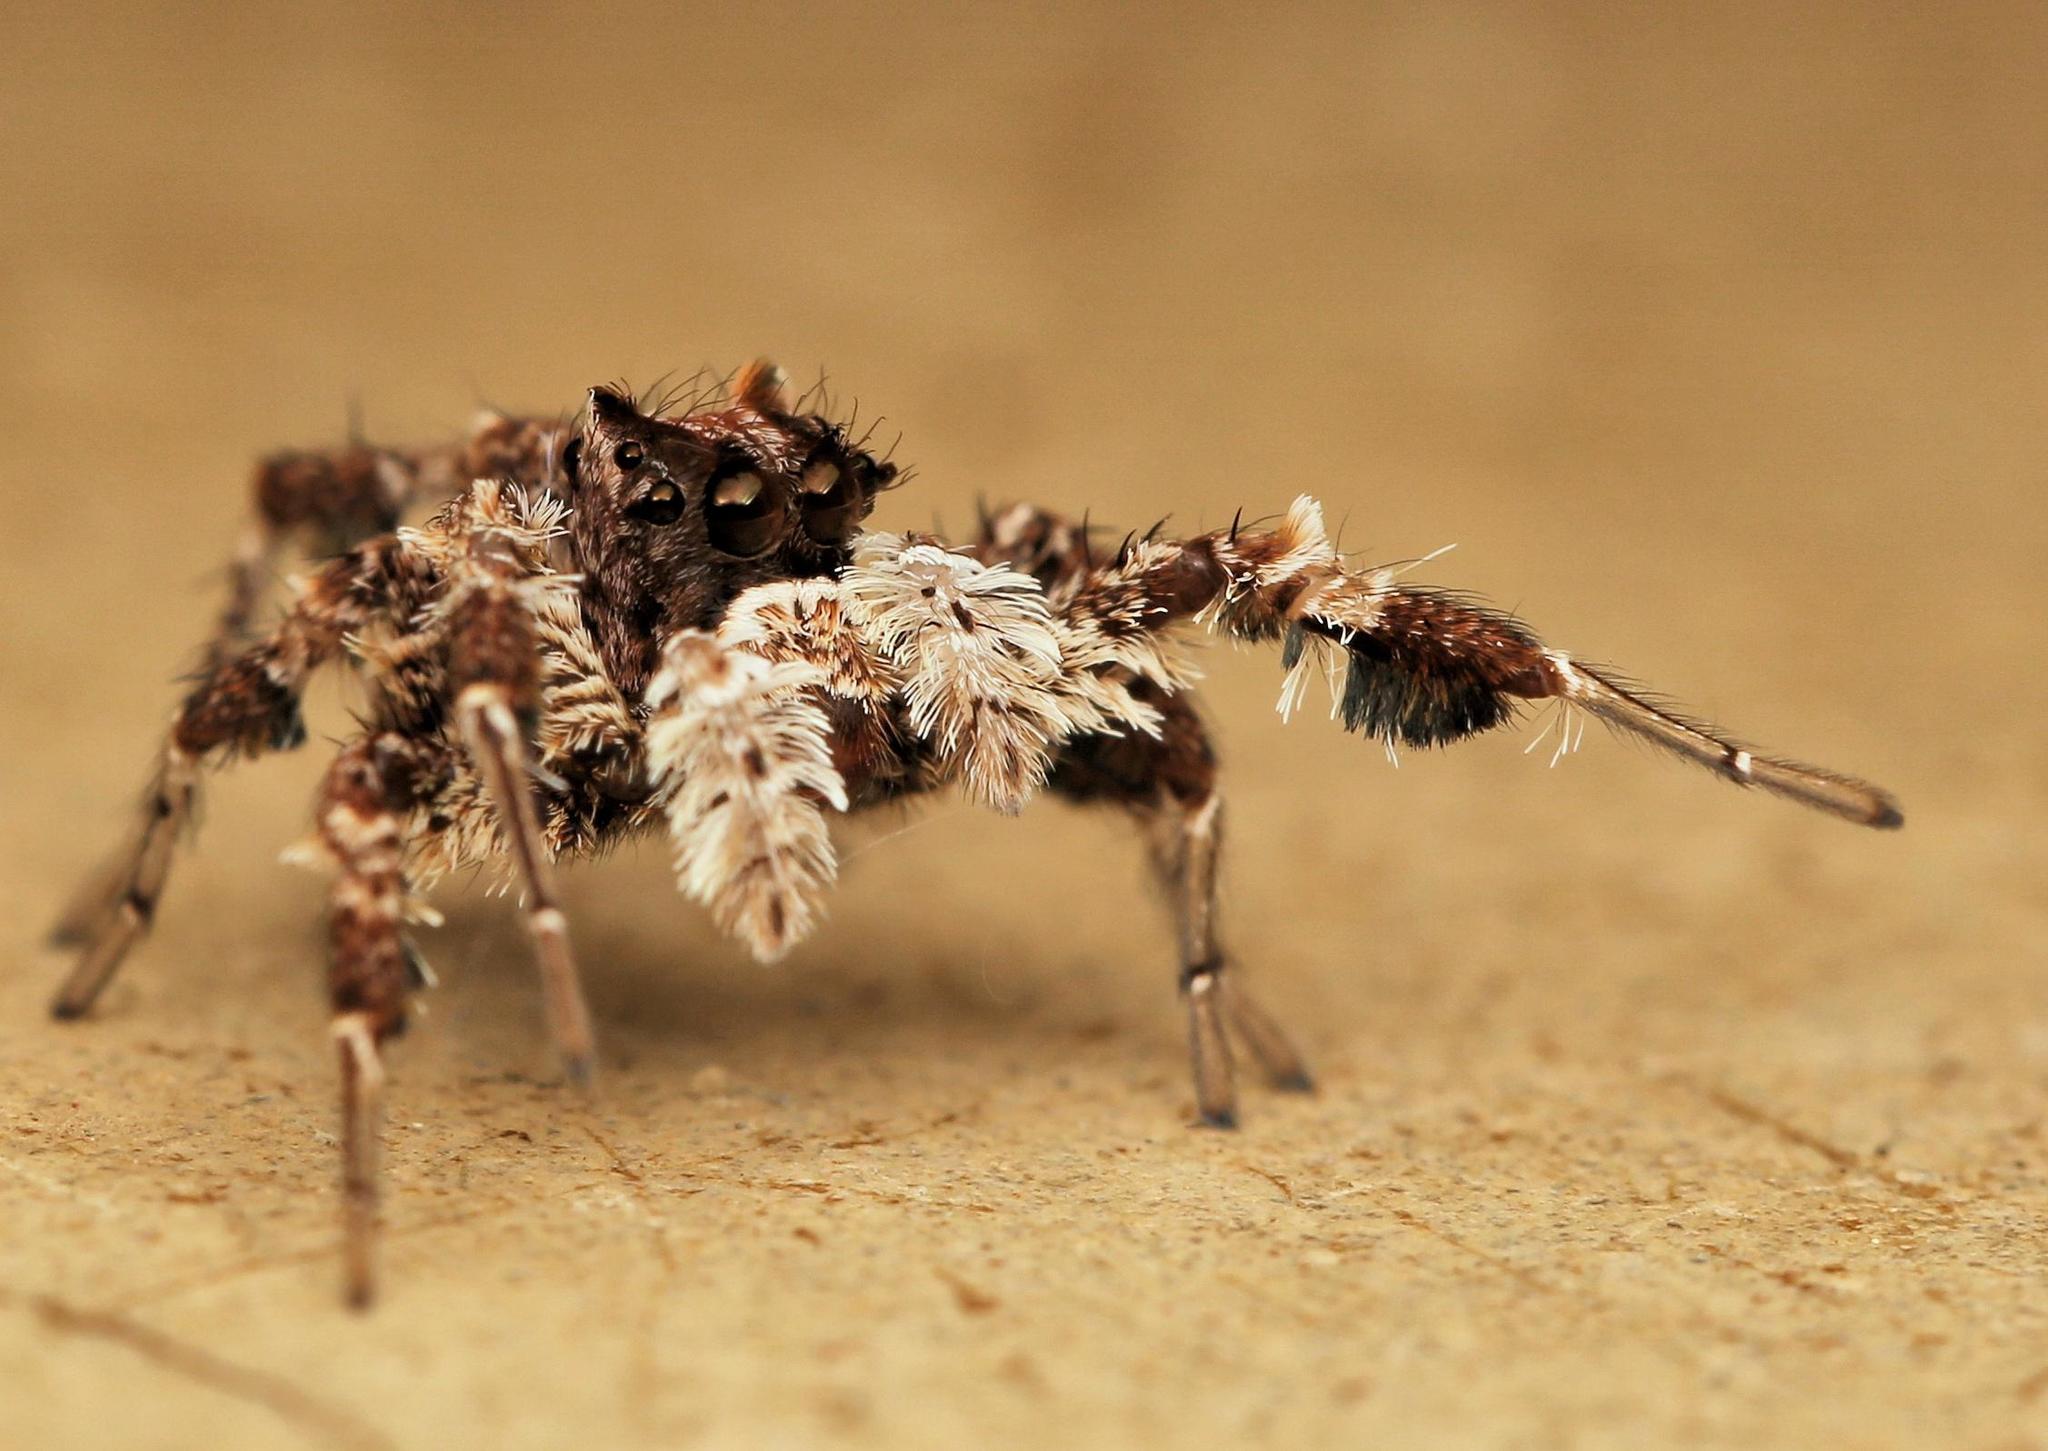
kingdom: Animalia
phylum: Arthropoda
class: Arachnida
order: Araneae
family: Salticidae
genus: Portia
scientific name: Portia schultzi
